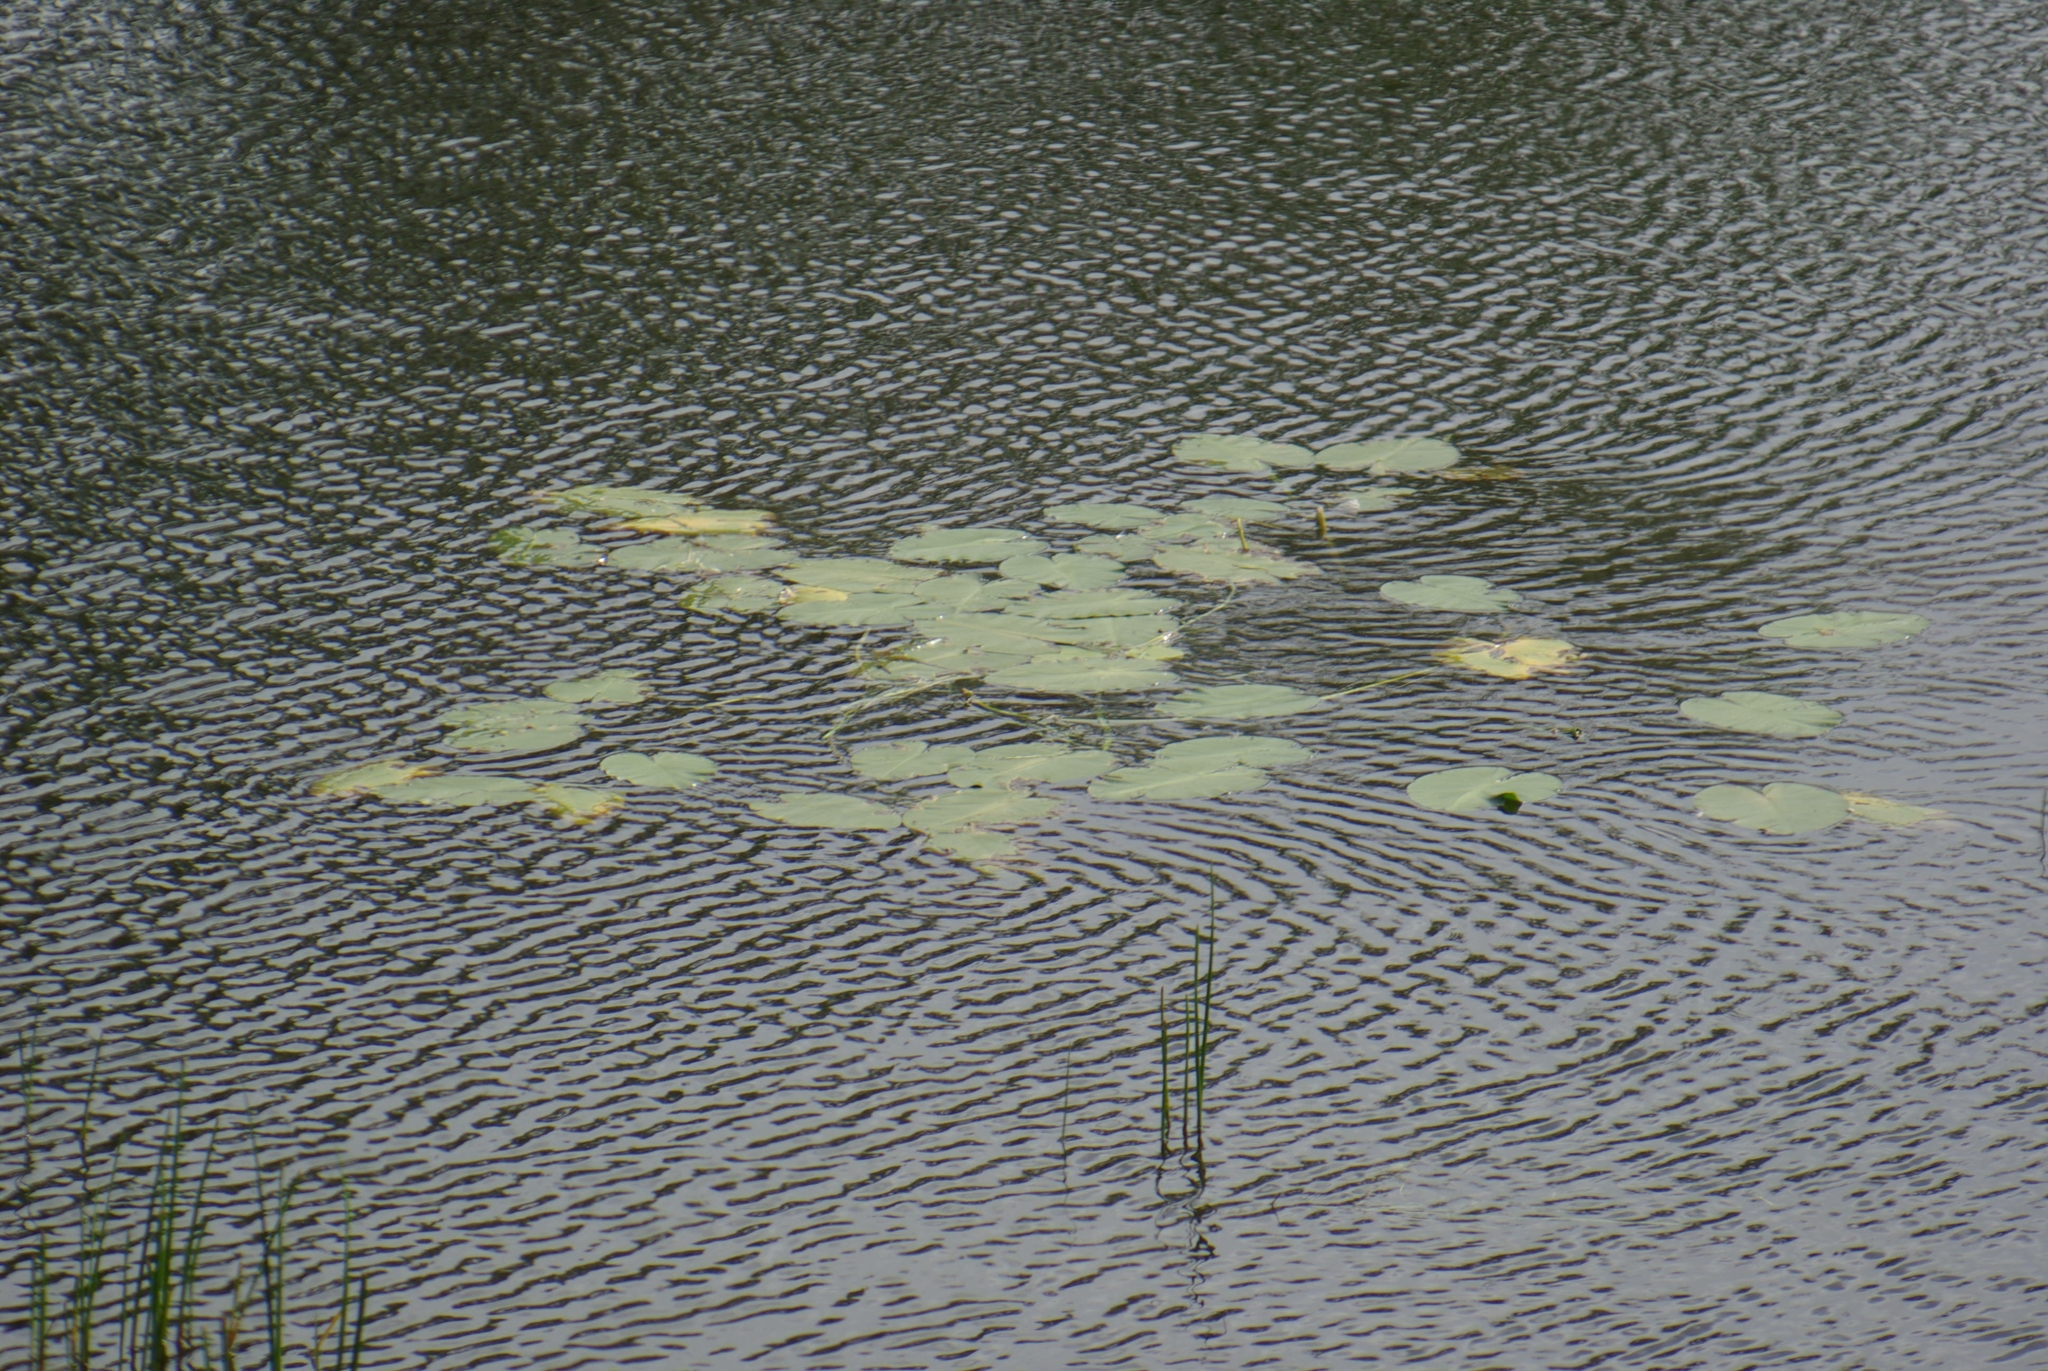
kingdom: Plantae
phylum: Tracheophyta
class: Magnoliopsida
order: Nymphaeales
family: Nymphaeaceae
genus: Nuphar
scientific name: Nuphar variegata
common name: Beaver-root
